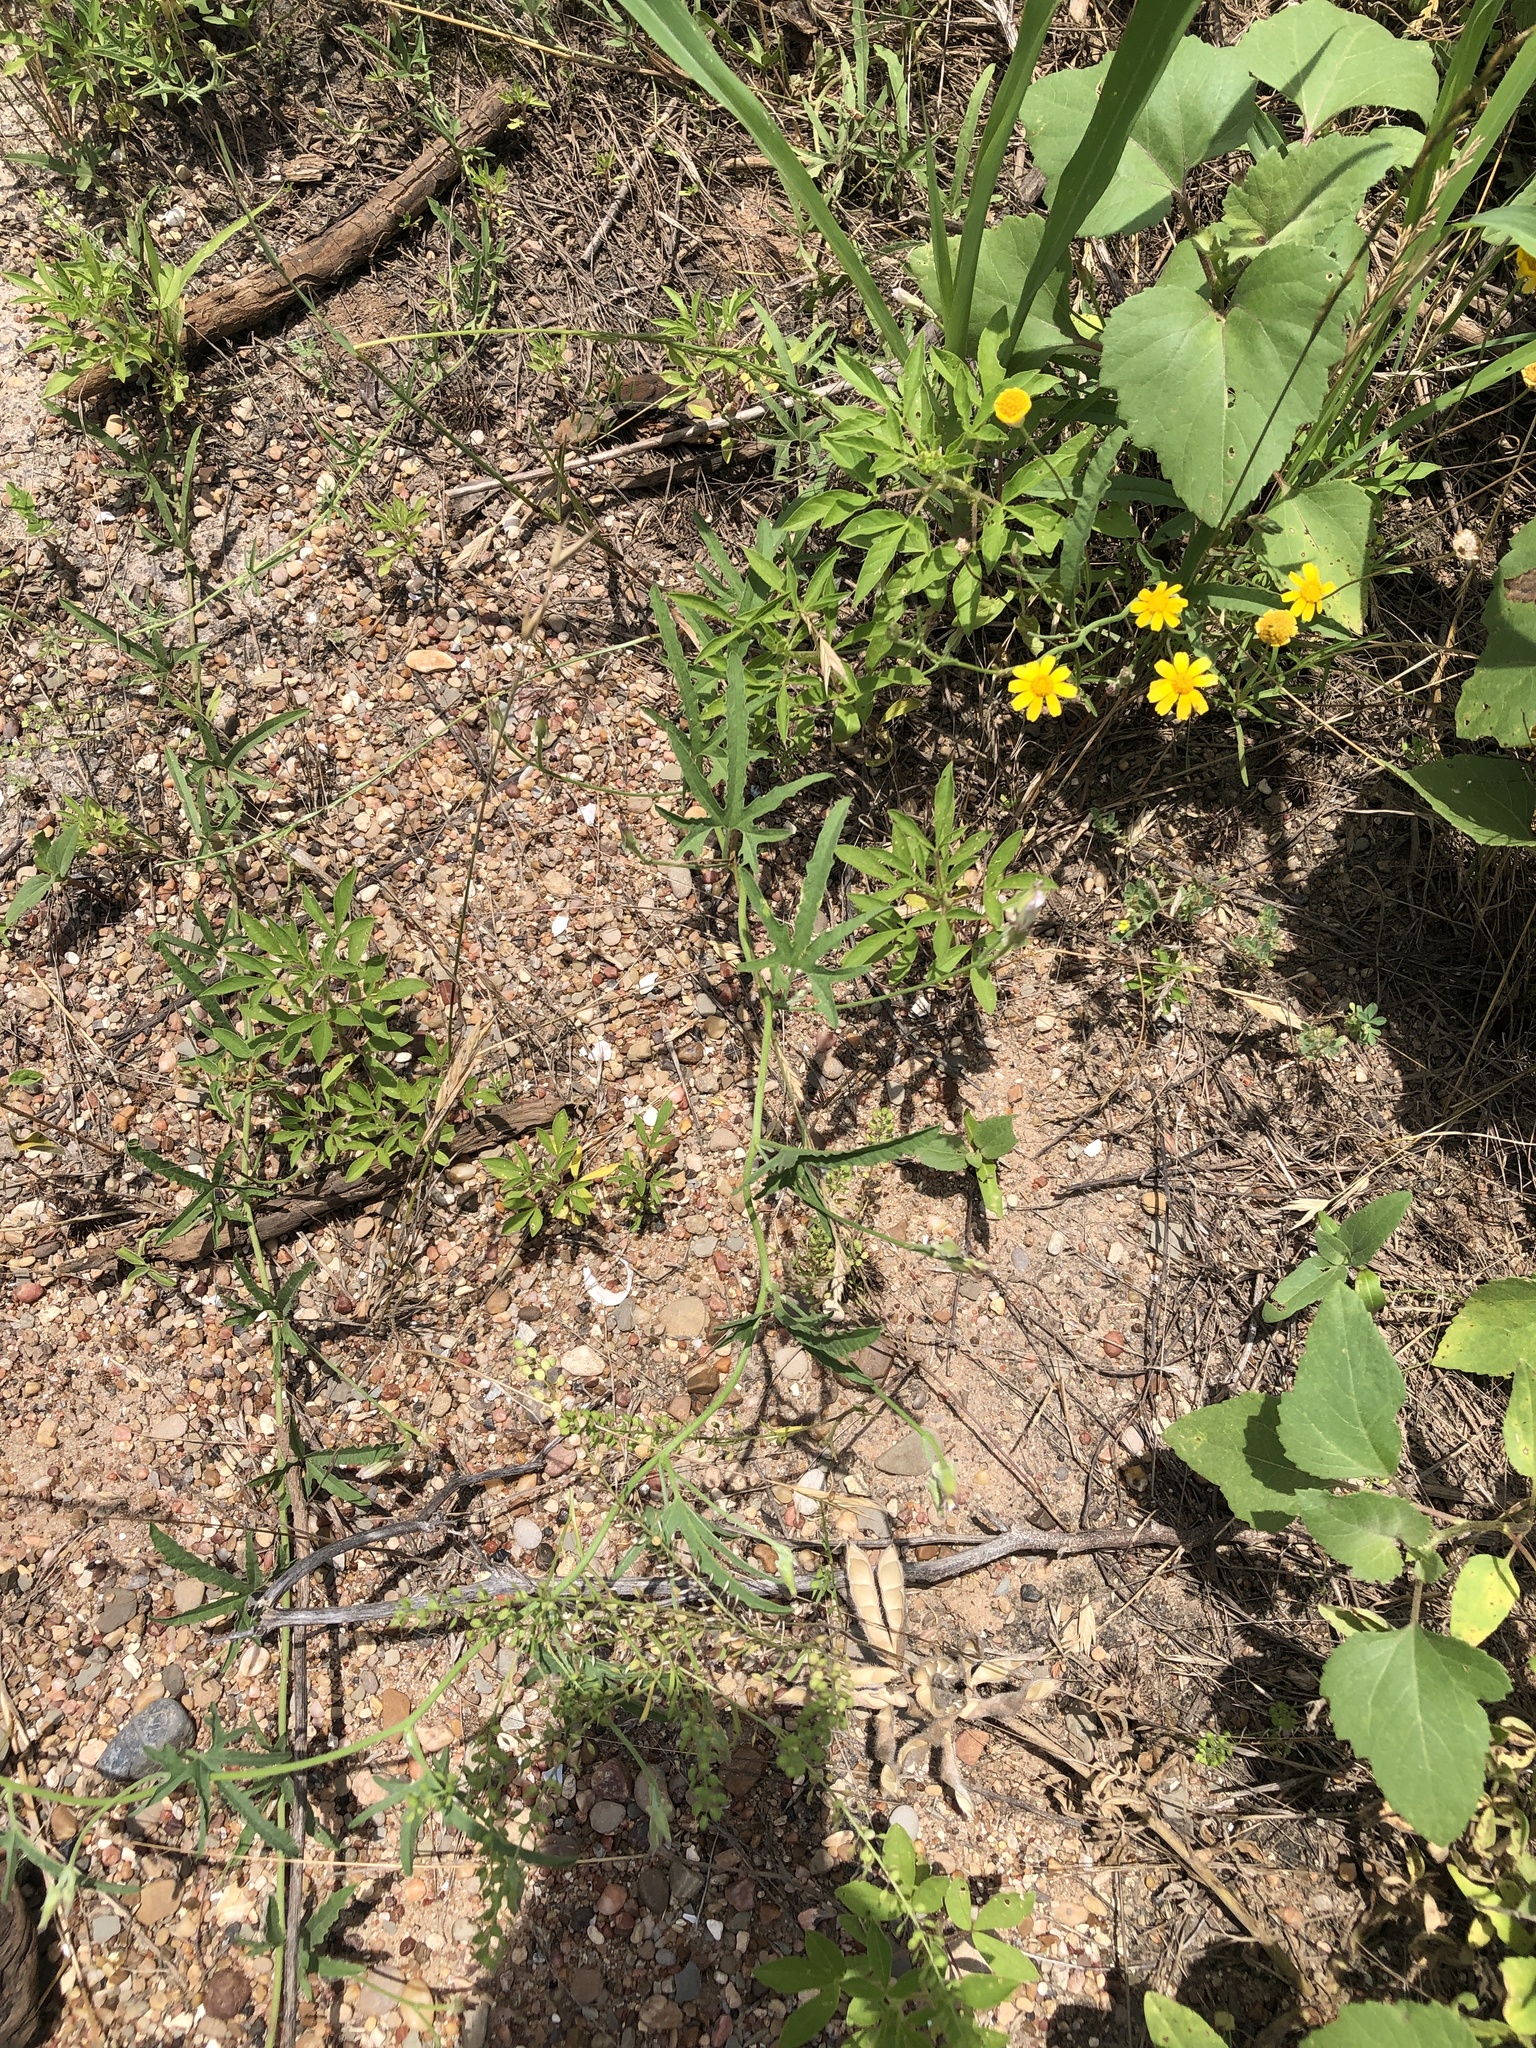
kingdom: Plantae
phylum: Tracheophyta
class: Magnoliopsida
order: Solanales
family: Convolvulaceae
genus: Convolvulus
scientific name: Convolvulus equitans
